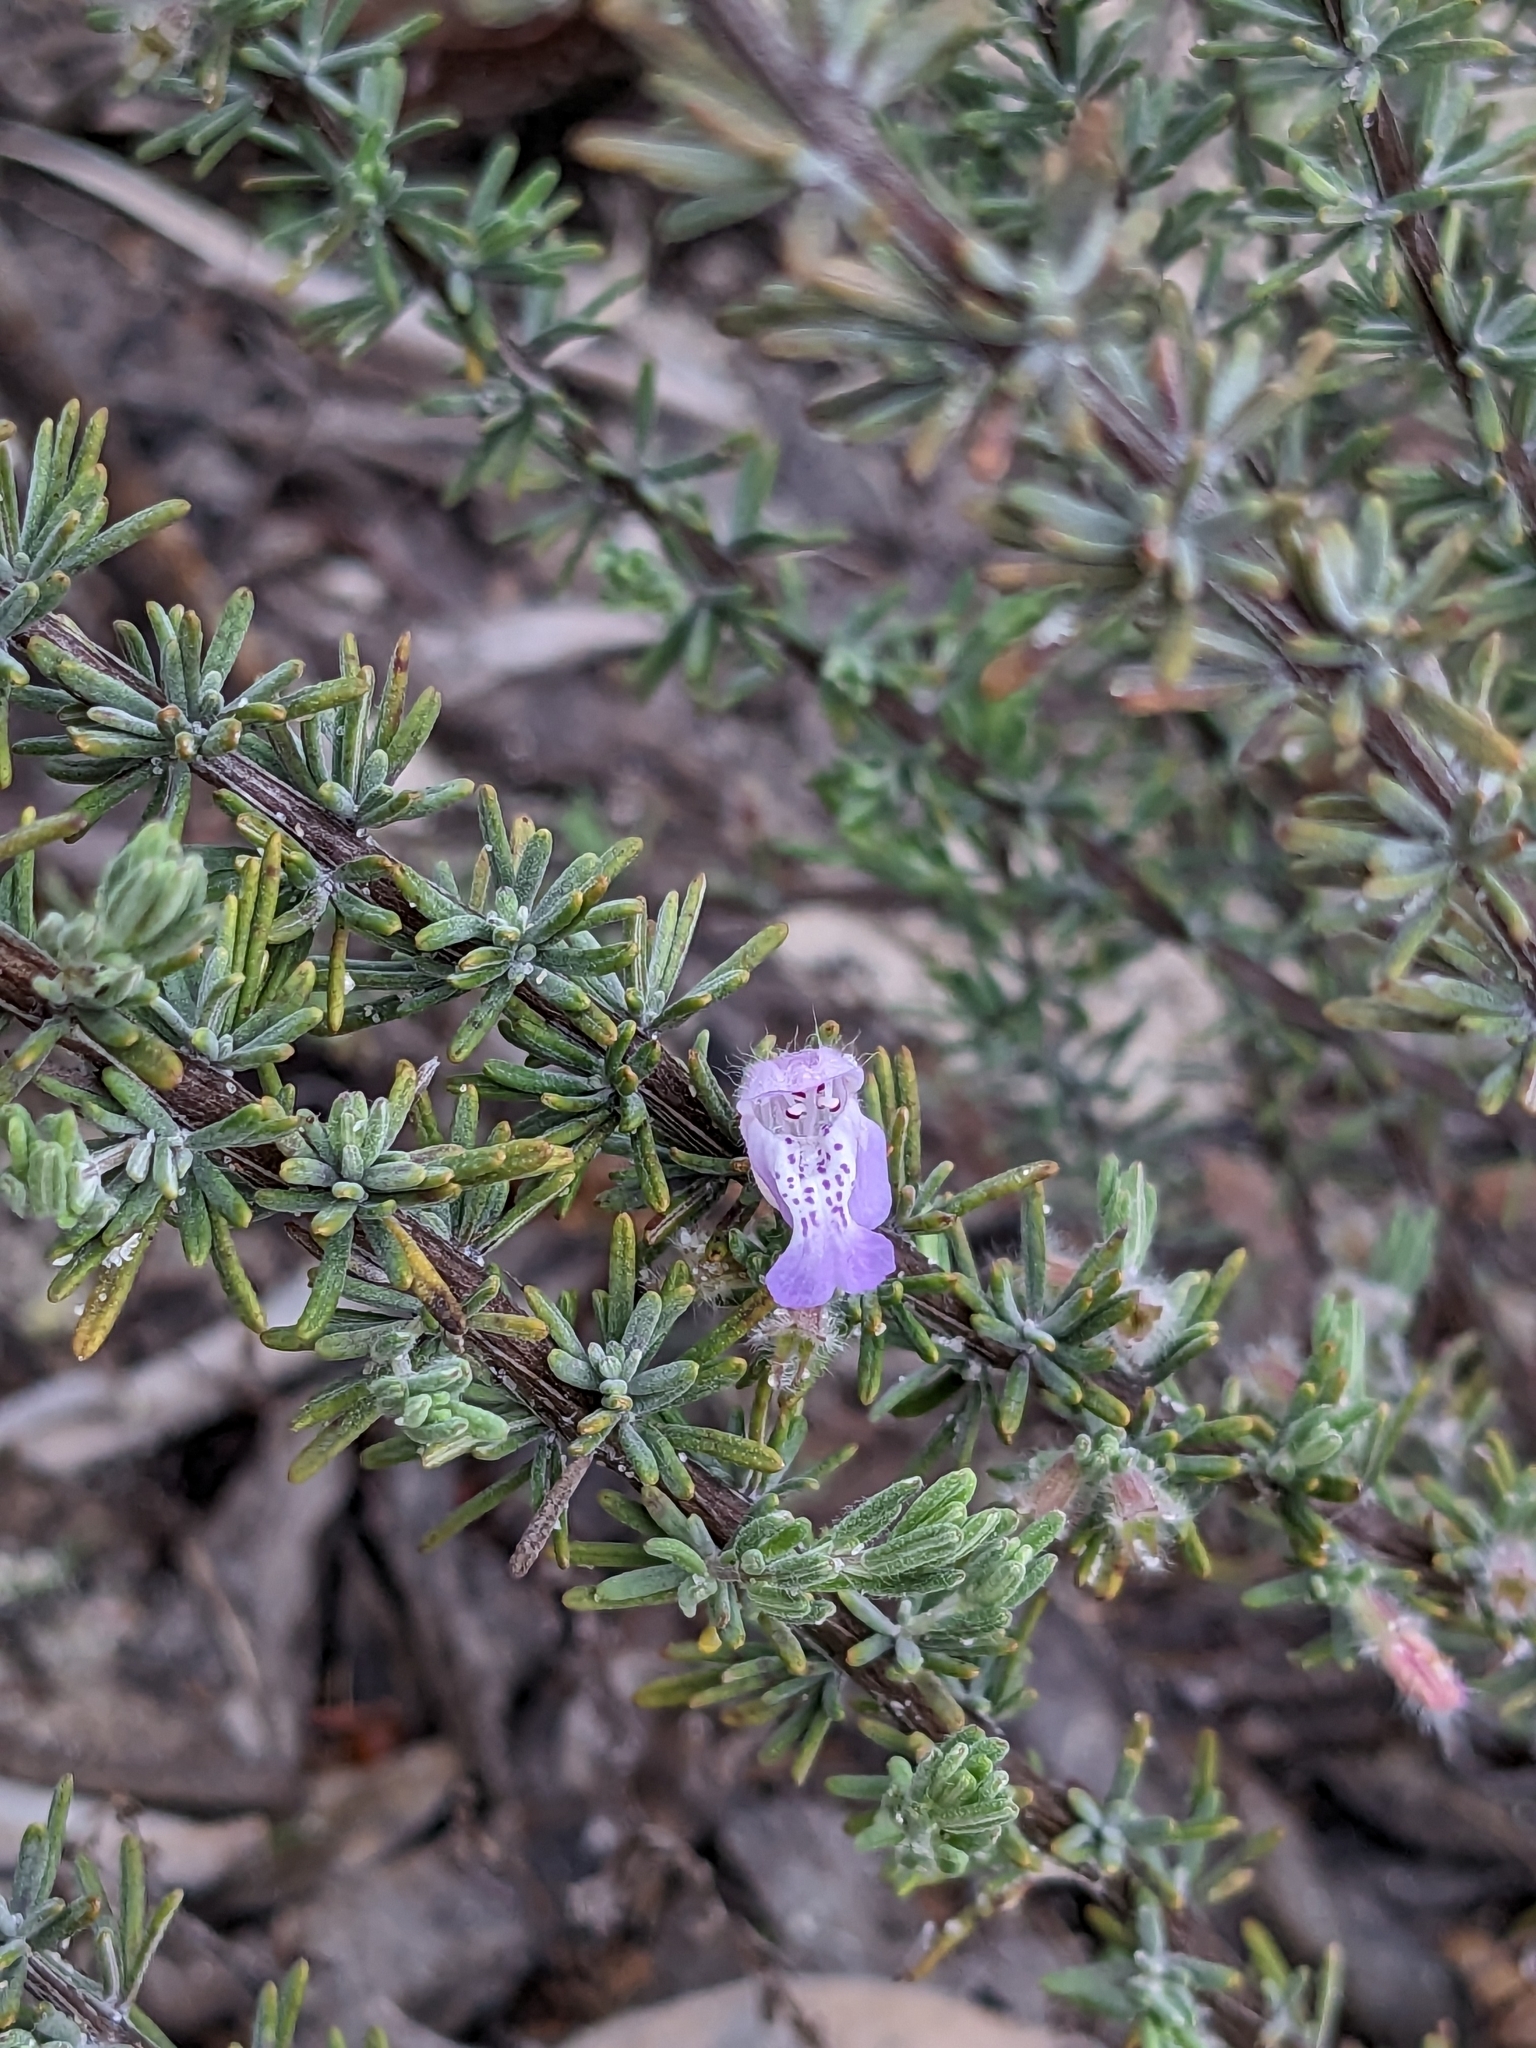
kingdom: Plantae
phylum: Tracheophyta
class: Magnoliopsida
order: Lamiales
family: Lamiaceae
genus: Conradina
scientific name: Conradina canescens
